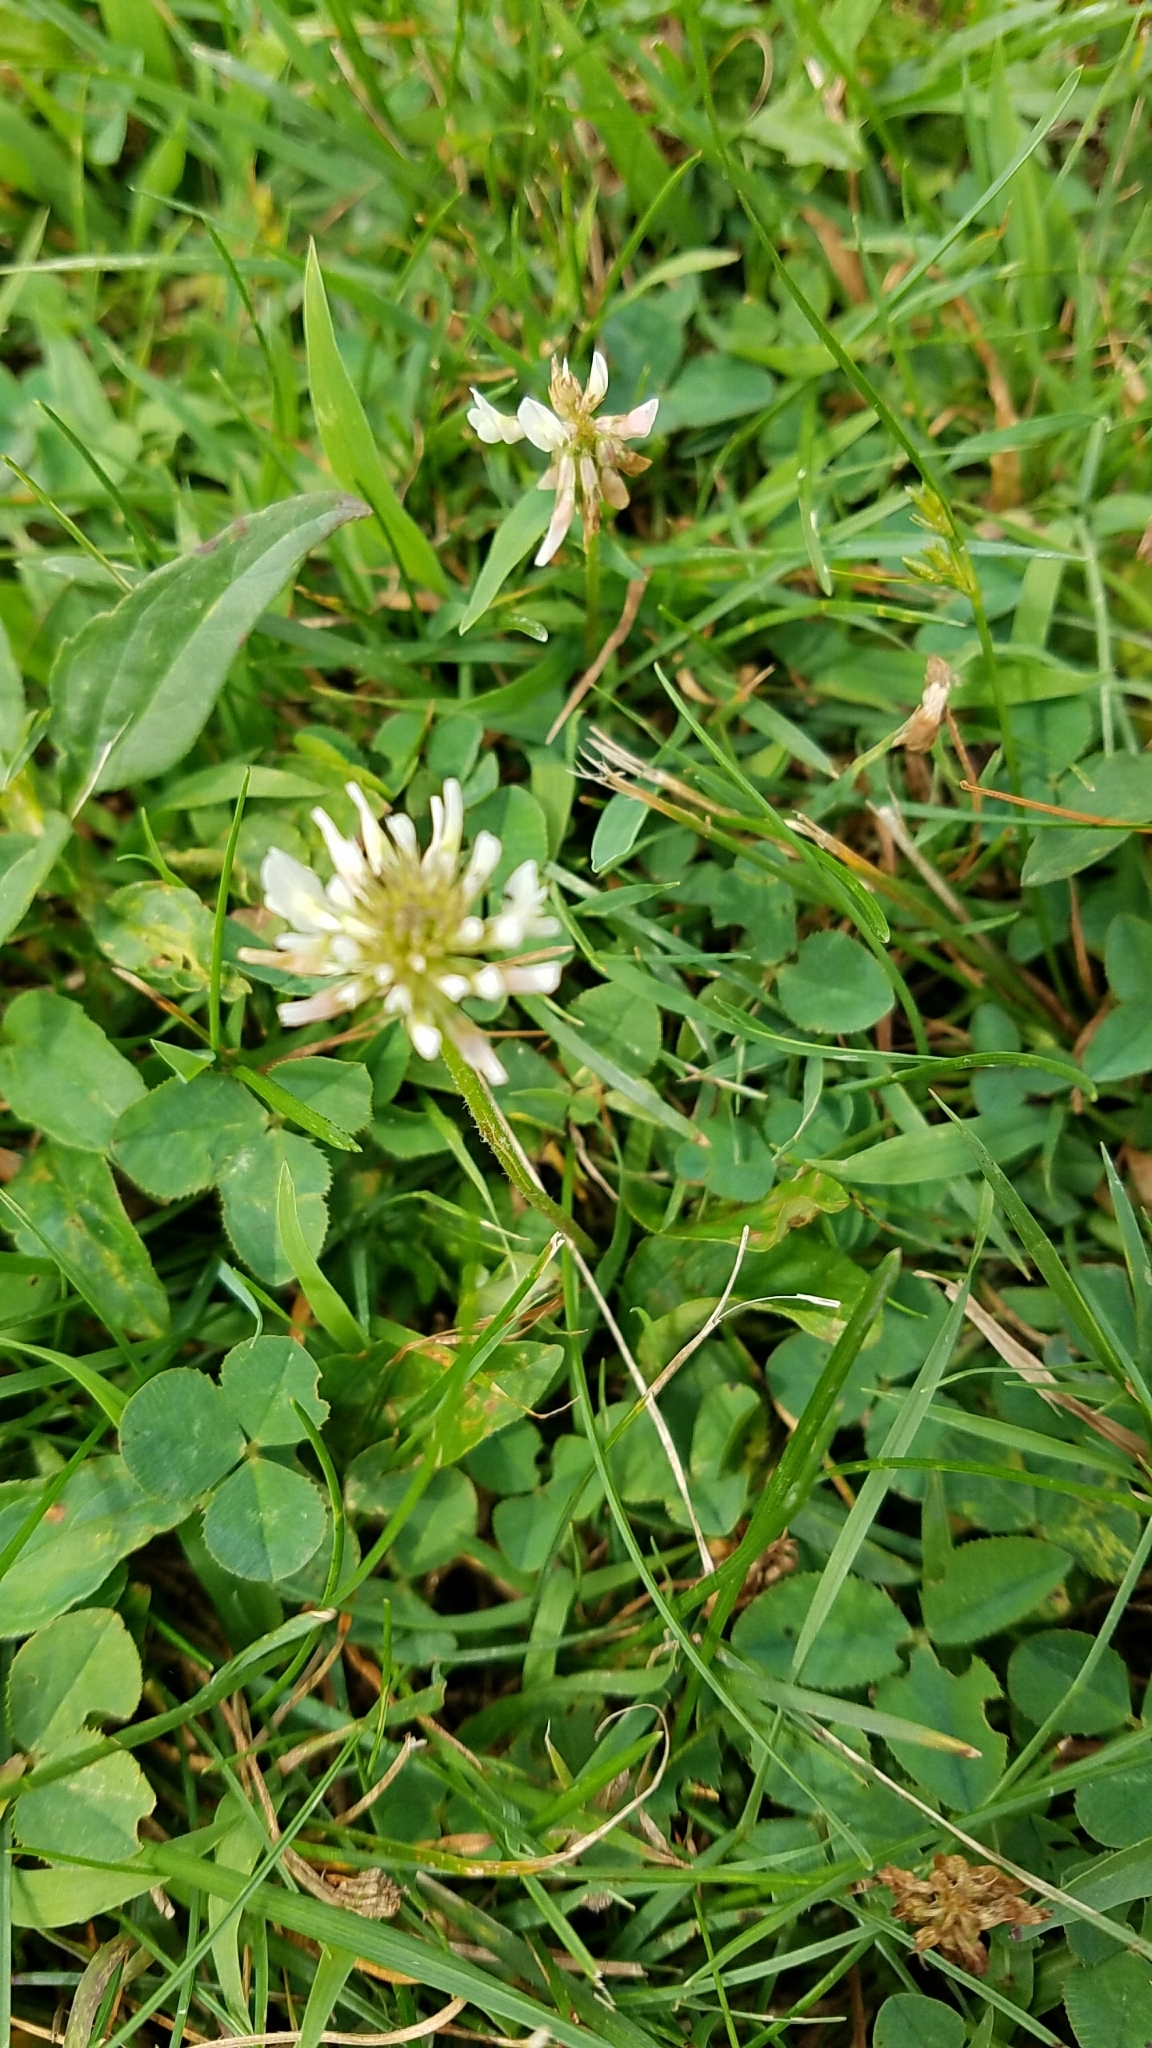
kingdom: Plantae
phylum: Tracheophyta
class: Magnoliopsida
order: Fabales
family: Fabaceae
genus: Trifolium
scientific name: Trifolium repens
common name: White clover
